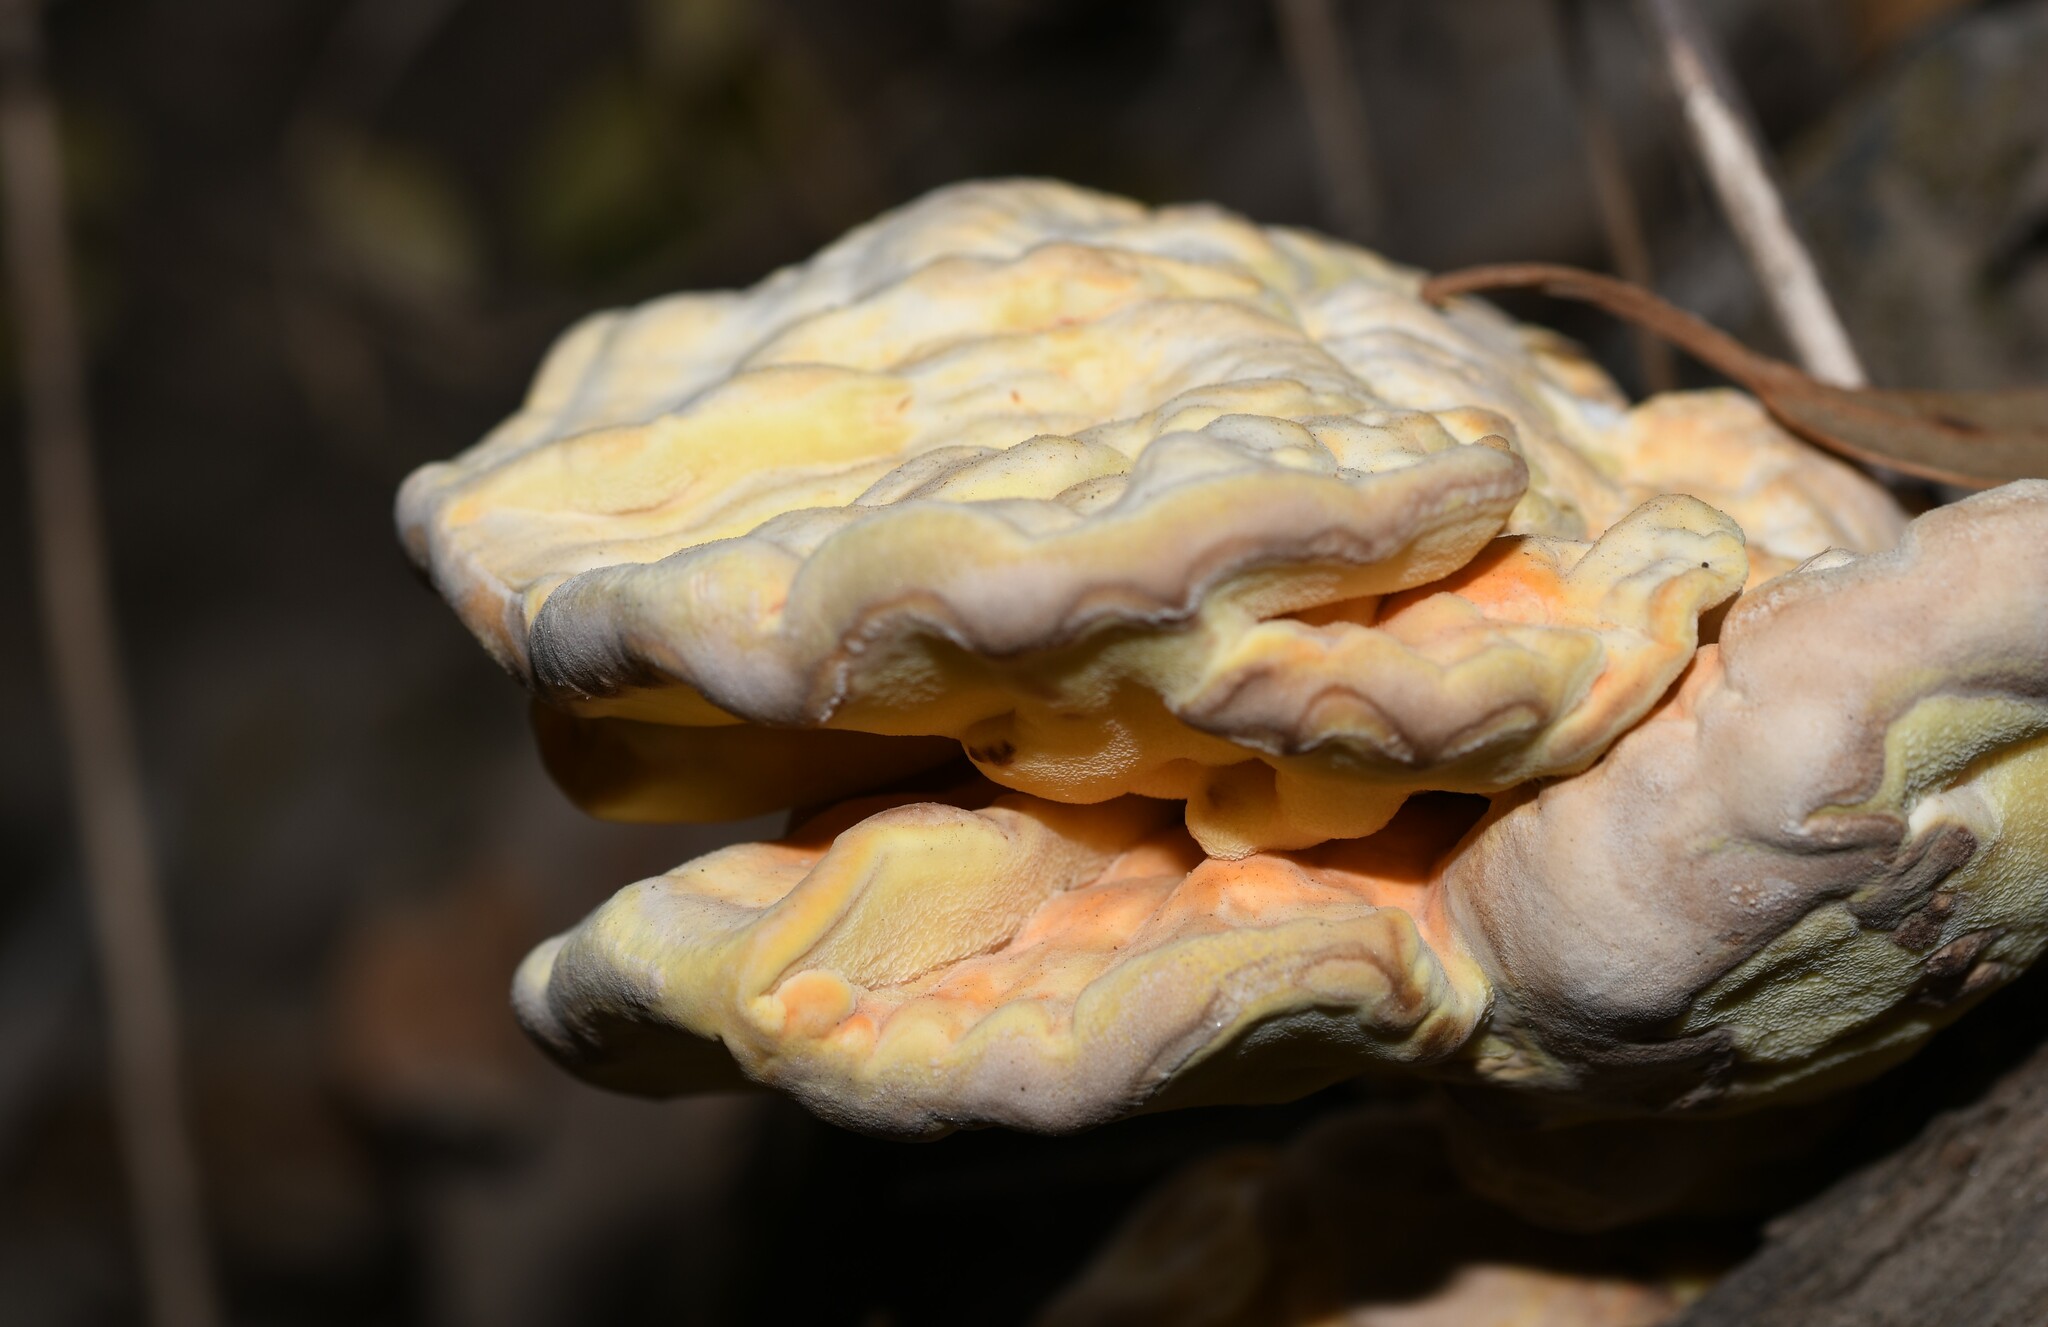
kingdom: Fungi
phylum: Basidiomycota
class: Agaricomycetes
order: Polyporales
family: Laetiporaceae
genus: Laetiporus
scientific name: Laetiporus sulphureus
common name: Chicken of the woods
